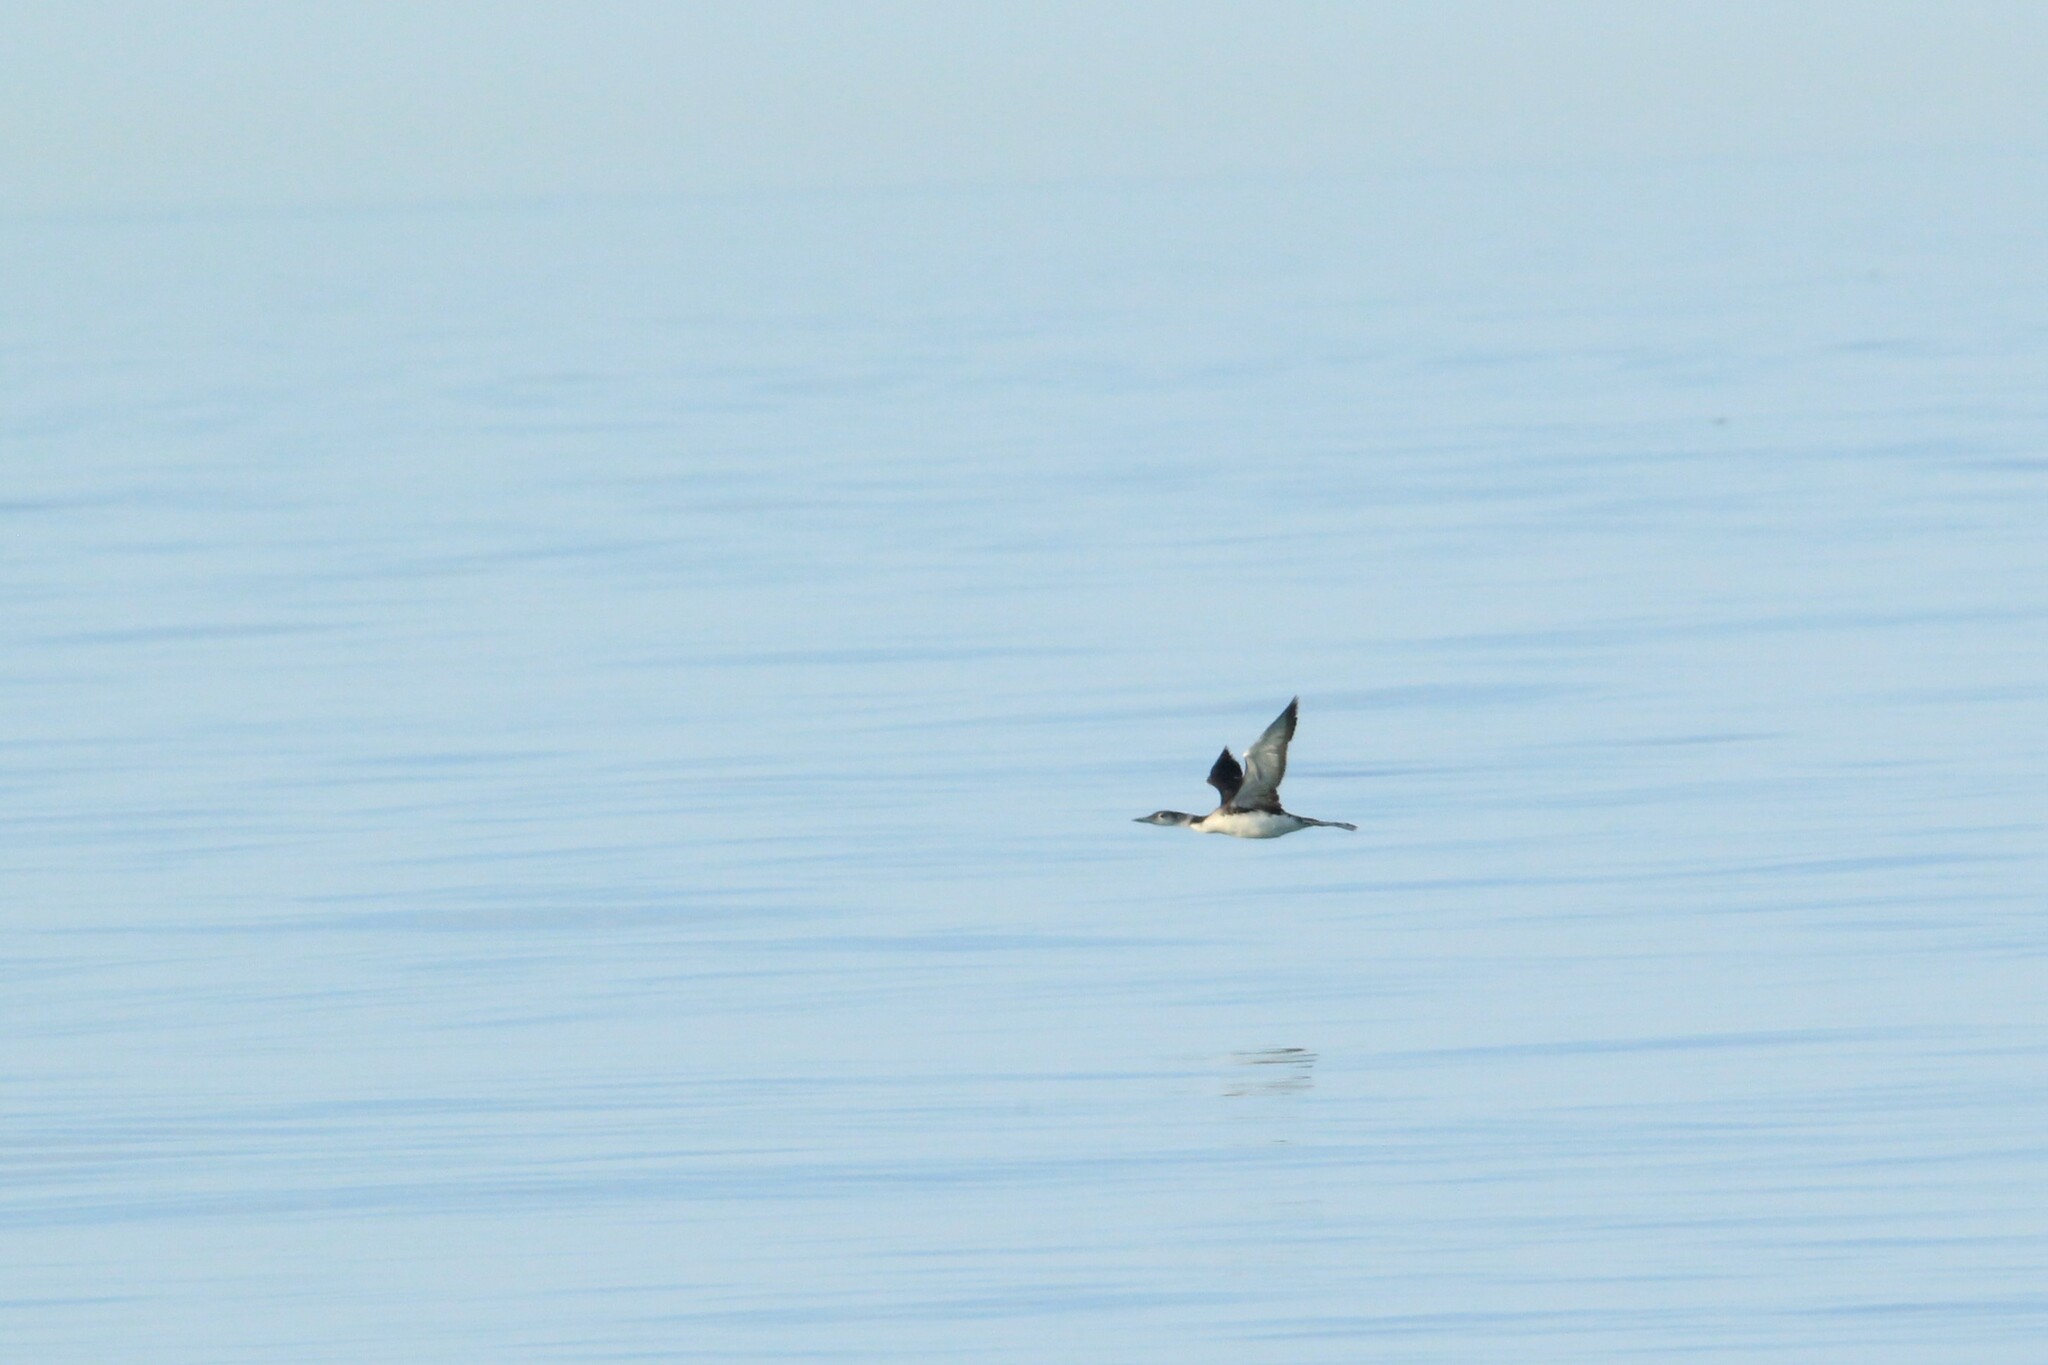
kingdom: Animalia
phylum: Chordata
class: Aves
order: Gaviiformes
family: Gaviidae
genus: Gavia
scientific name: Gavia immer
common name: Common loon
